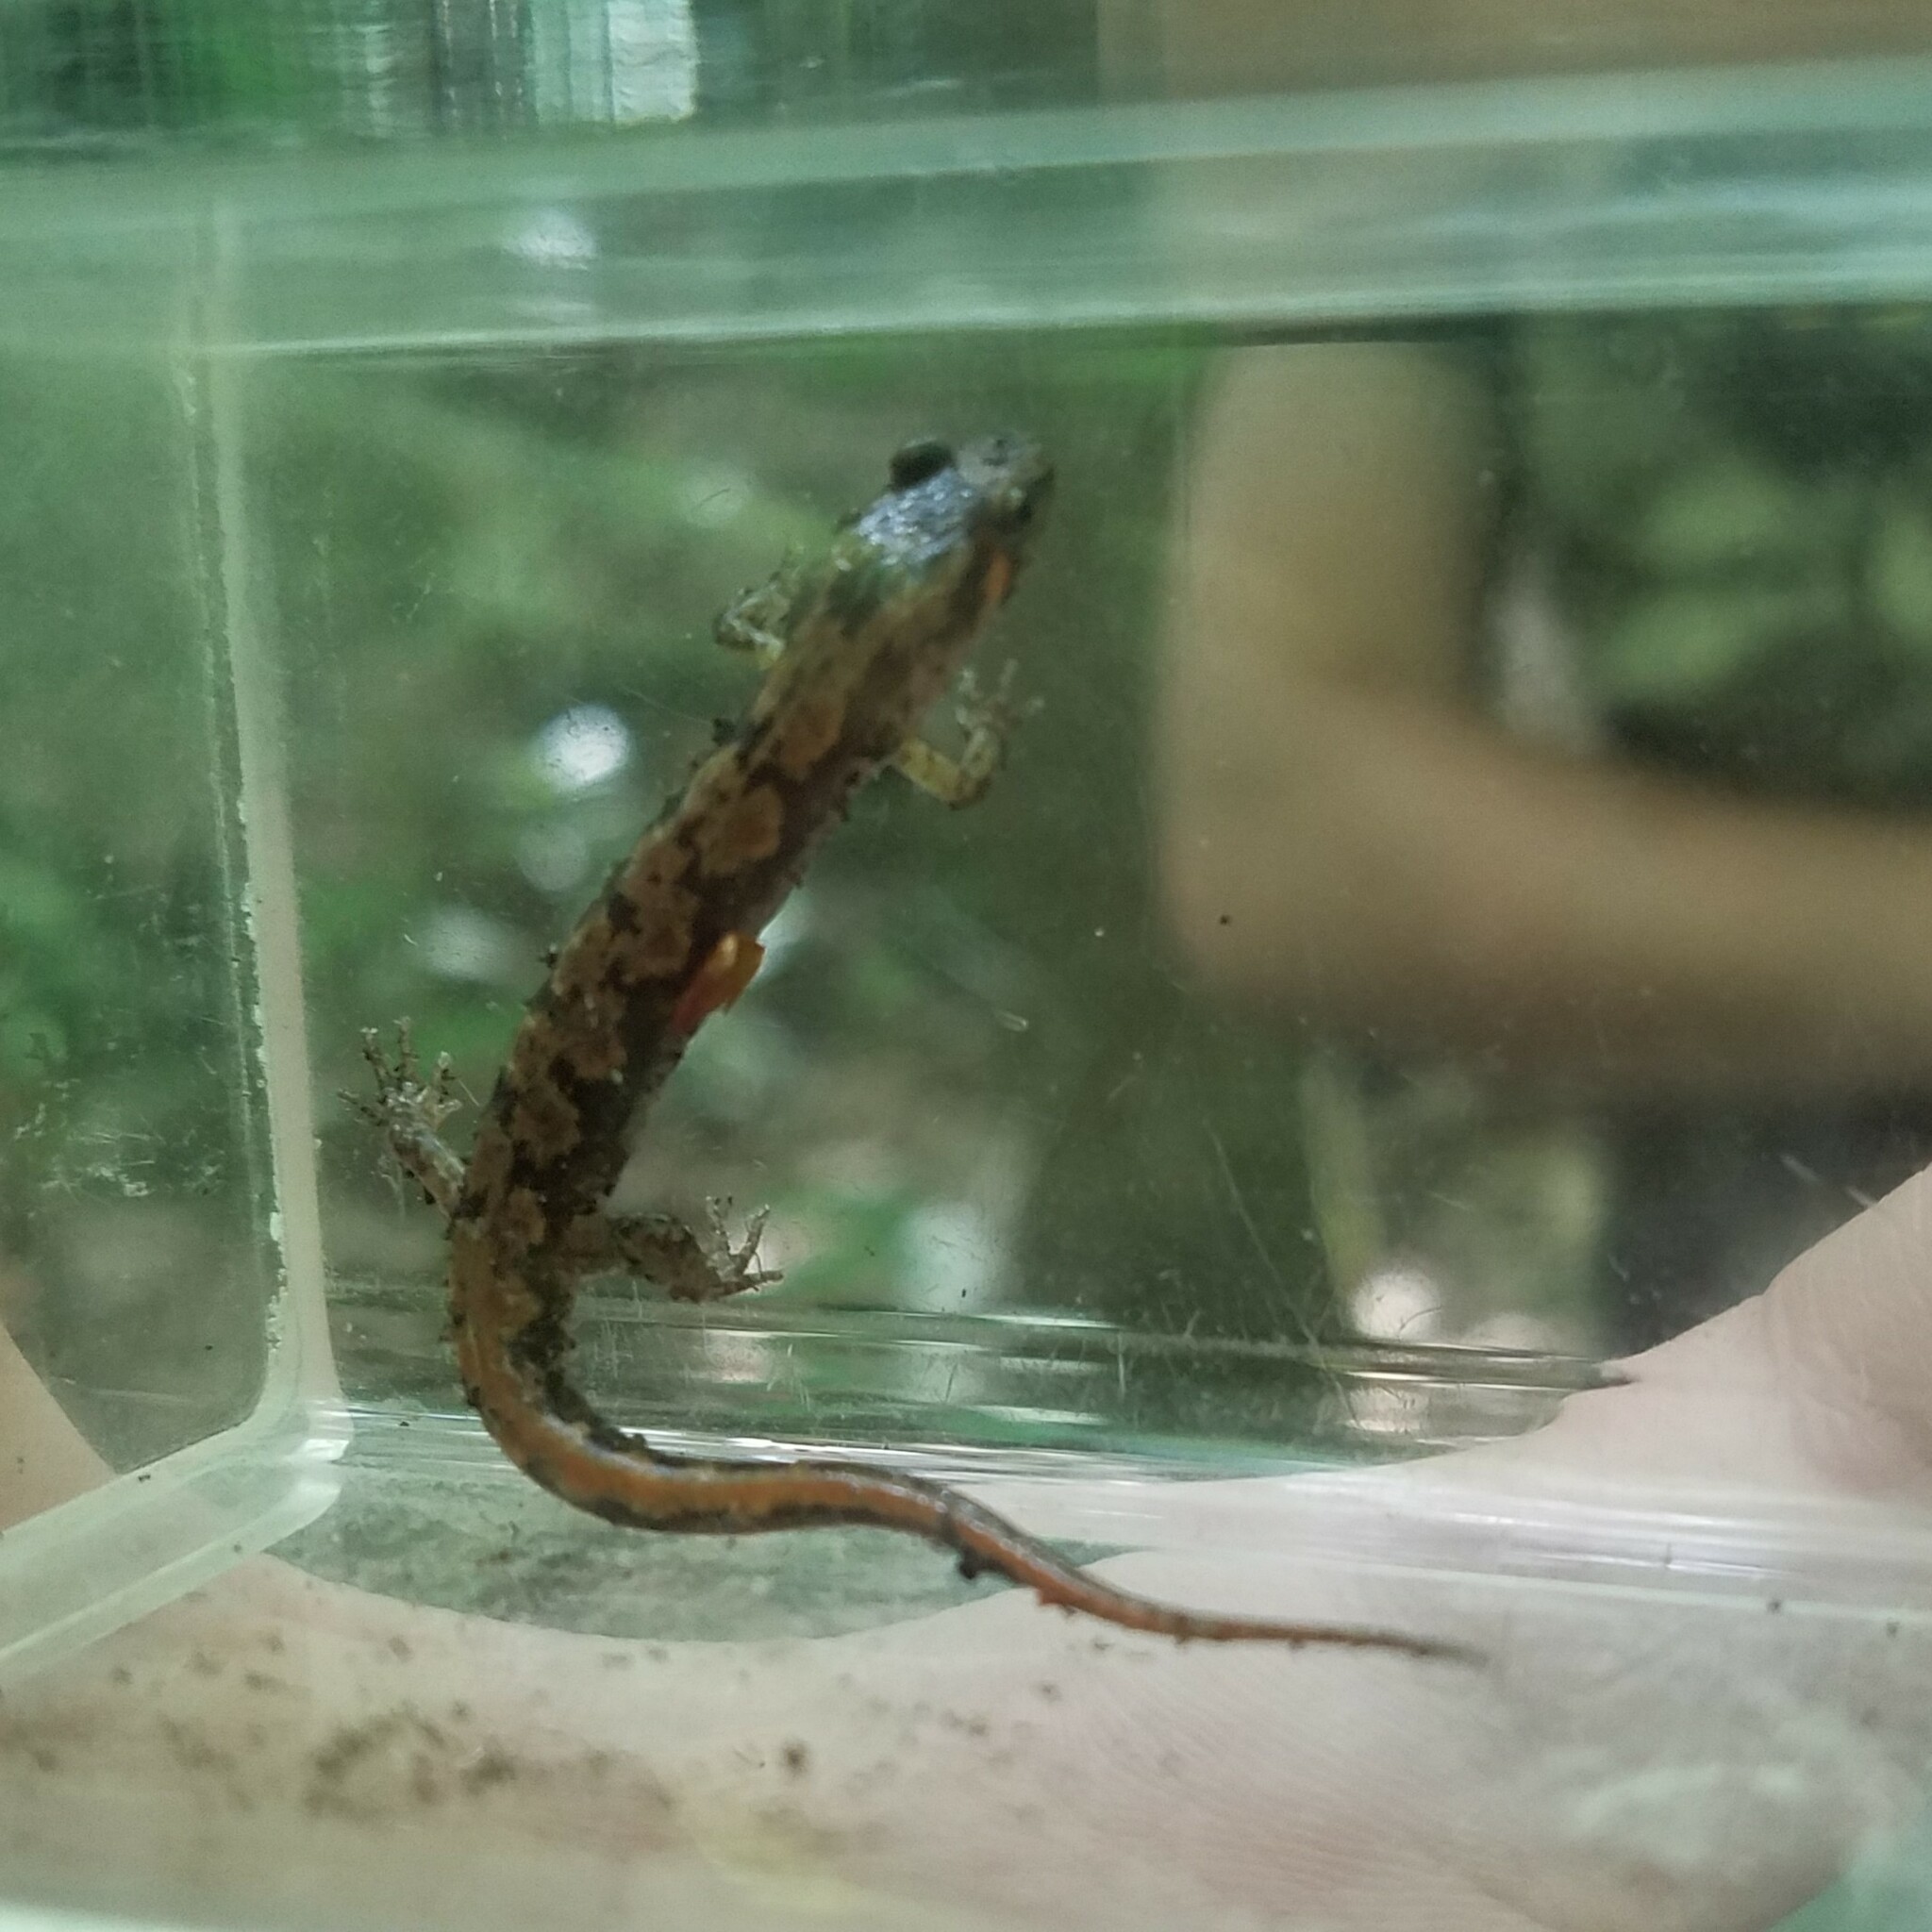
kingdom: Animalia
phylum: Chordata
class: Amphibia
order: Caudata
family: Plethodontidae
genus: Desmognathus
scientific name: Desmognathus ocoee
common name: Ocoee salamander
